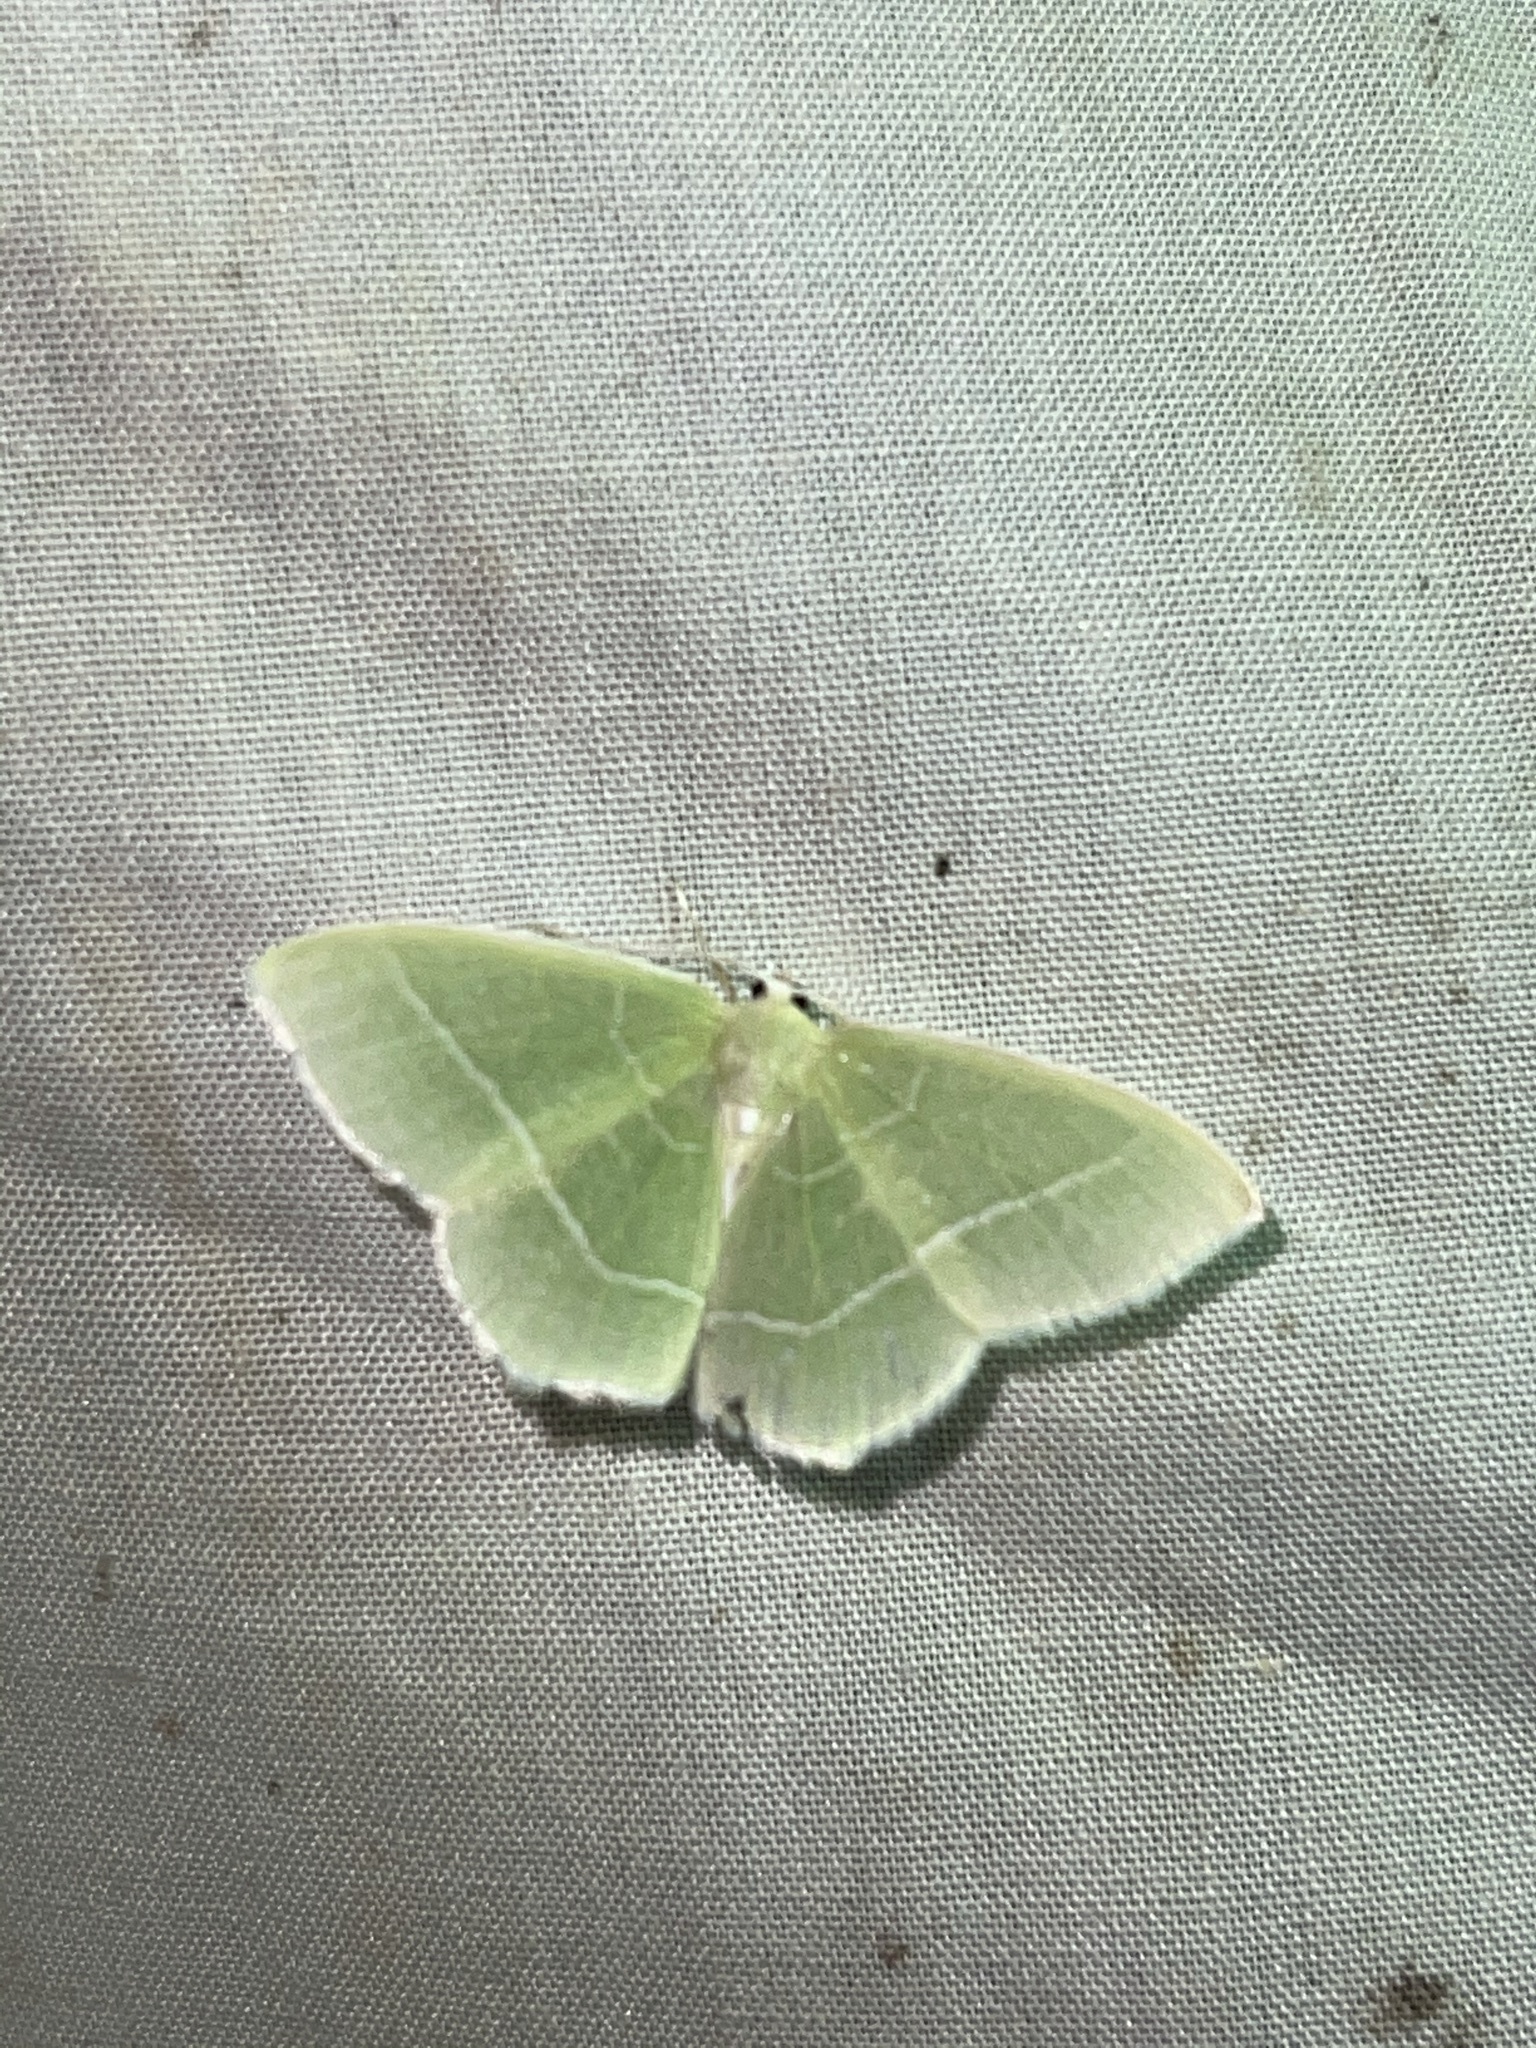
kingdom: Animalia
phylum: Arthropoda
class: Insecta
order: Lepidoptera
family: Geometridae
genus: Nemoria
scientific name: Nemoria mimosaria
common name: White-fringed emerald
